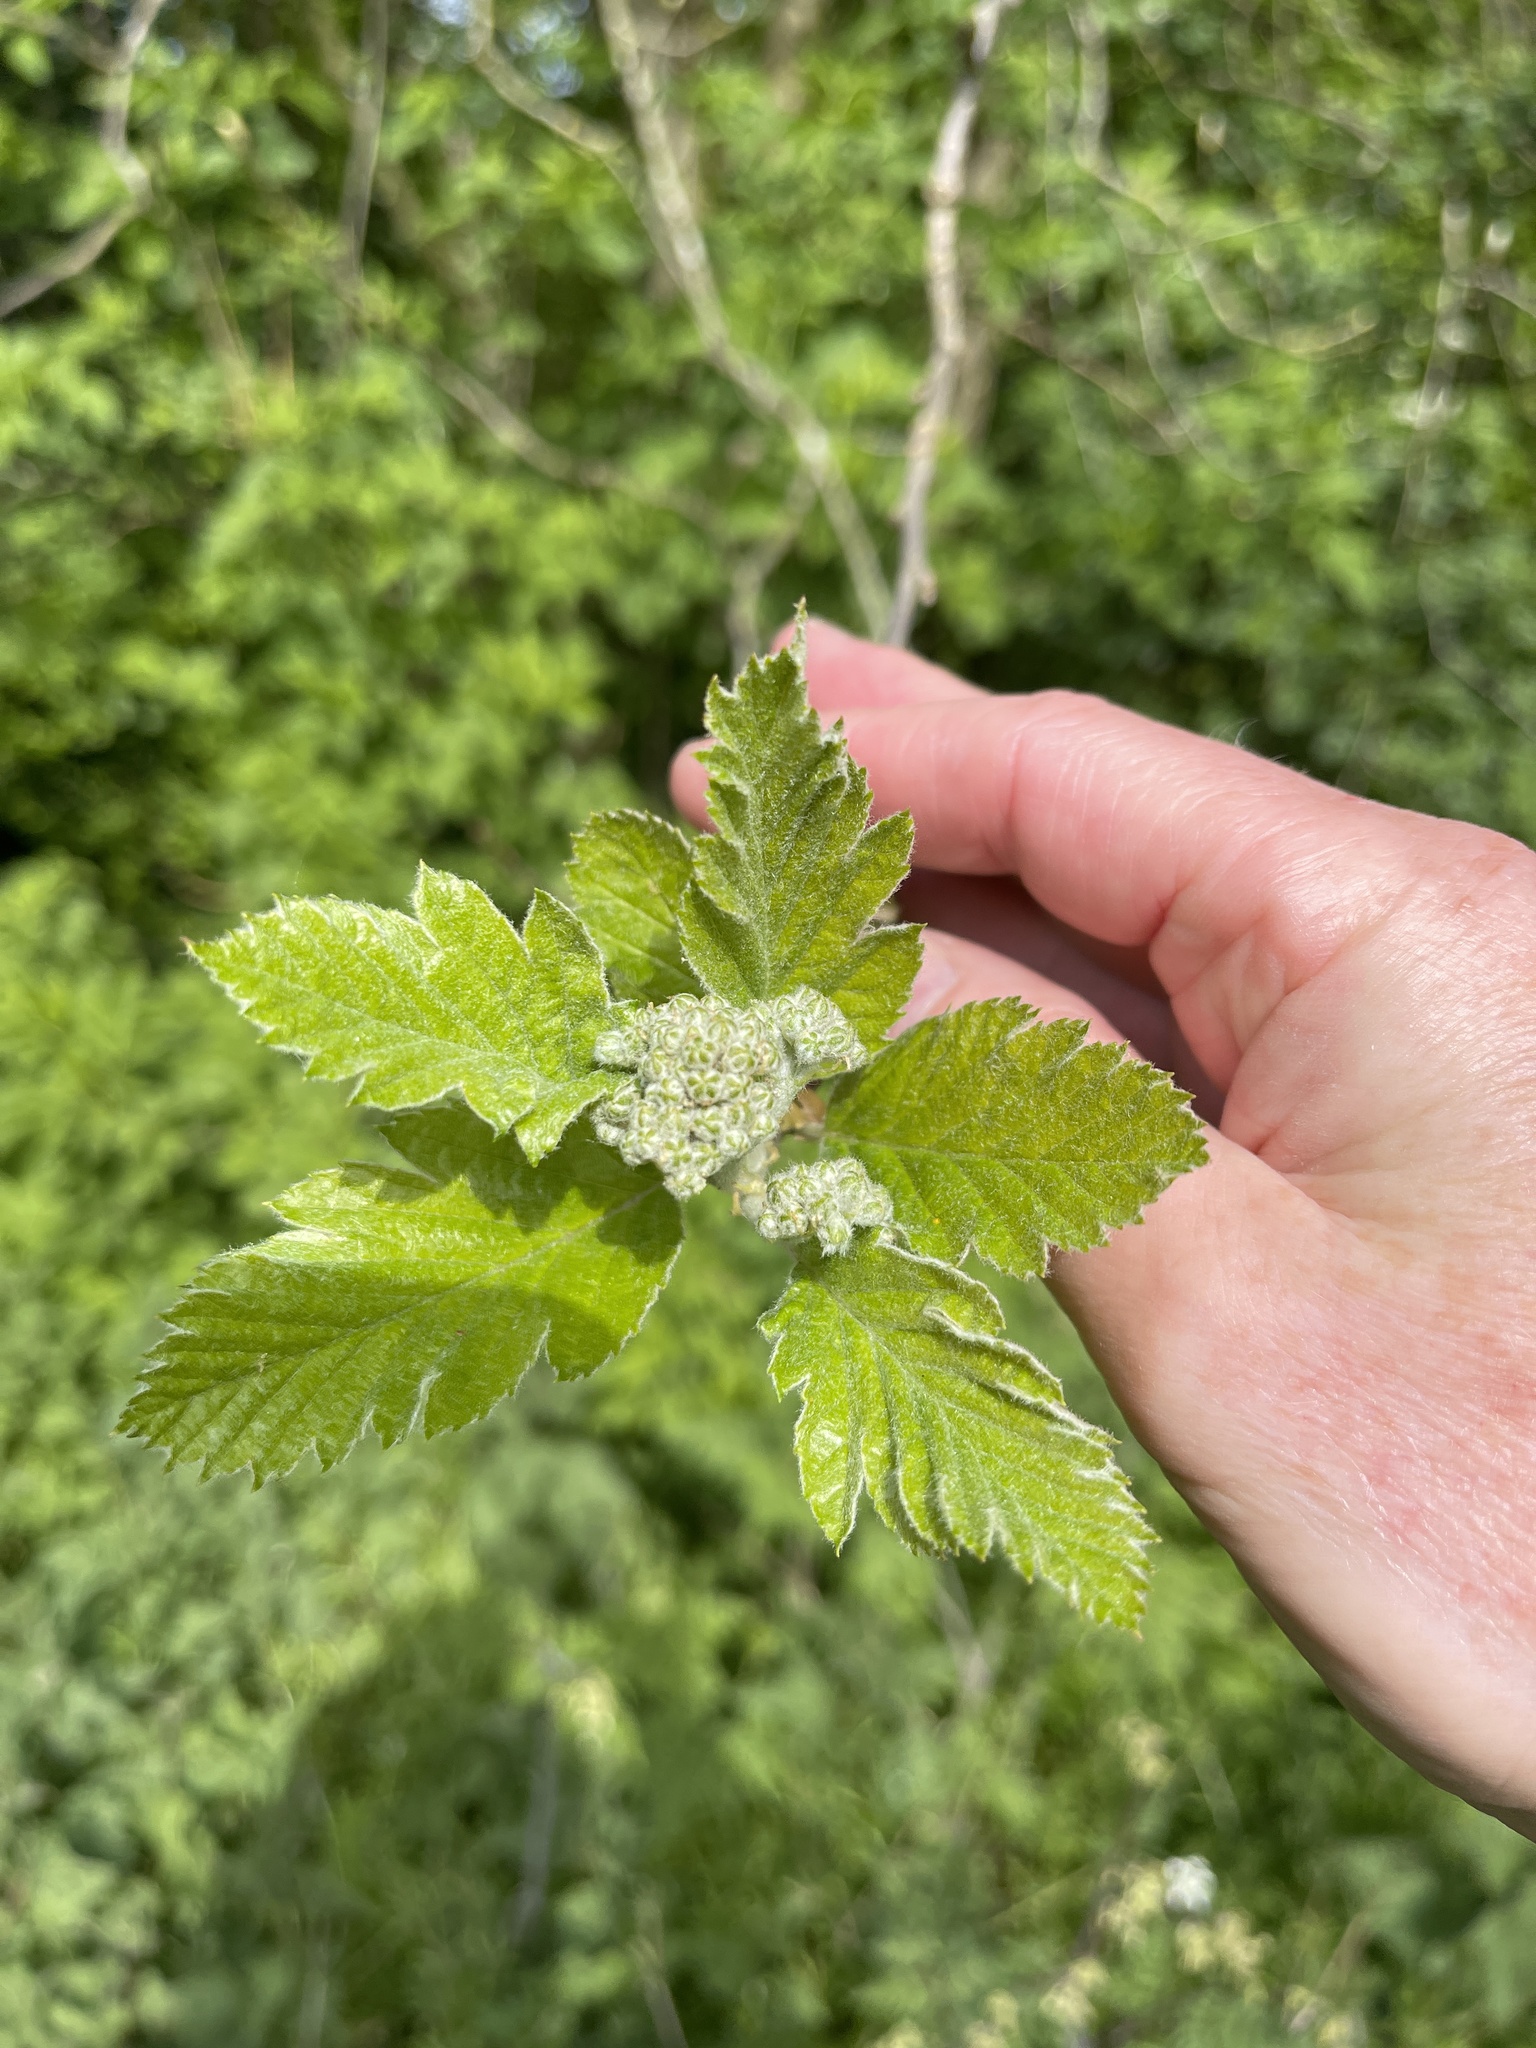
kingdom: Plantae
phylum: Tracheophyta
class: Magnoliopsida
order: Rosales
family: Rosaceae
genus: Scandosorbus
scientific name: Scandosorbus intermedia
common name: Swedish whitebeam
